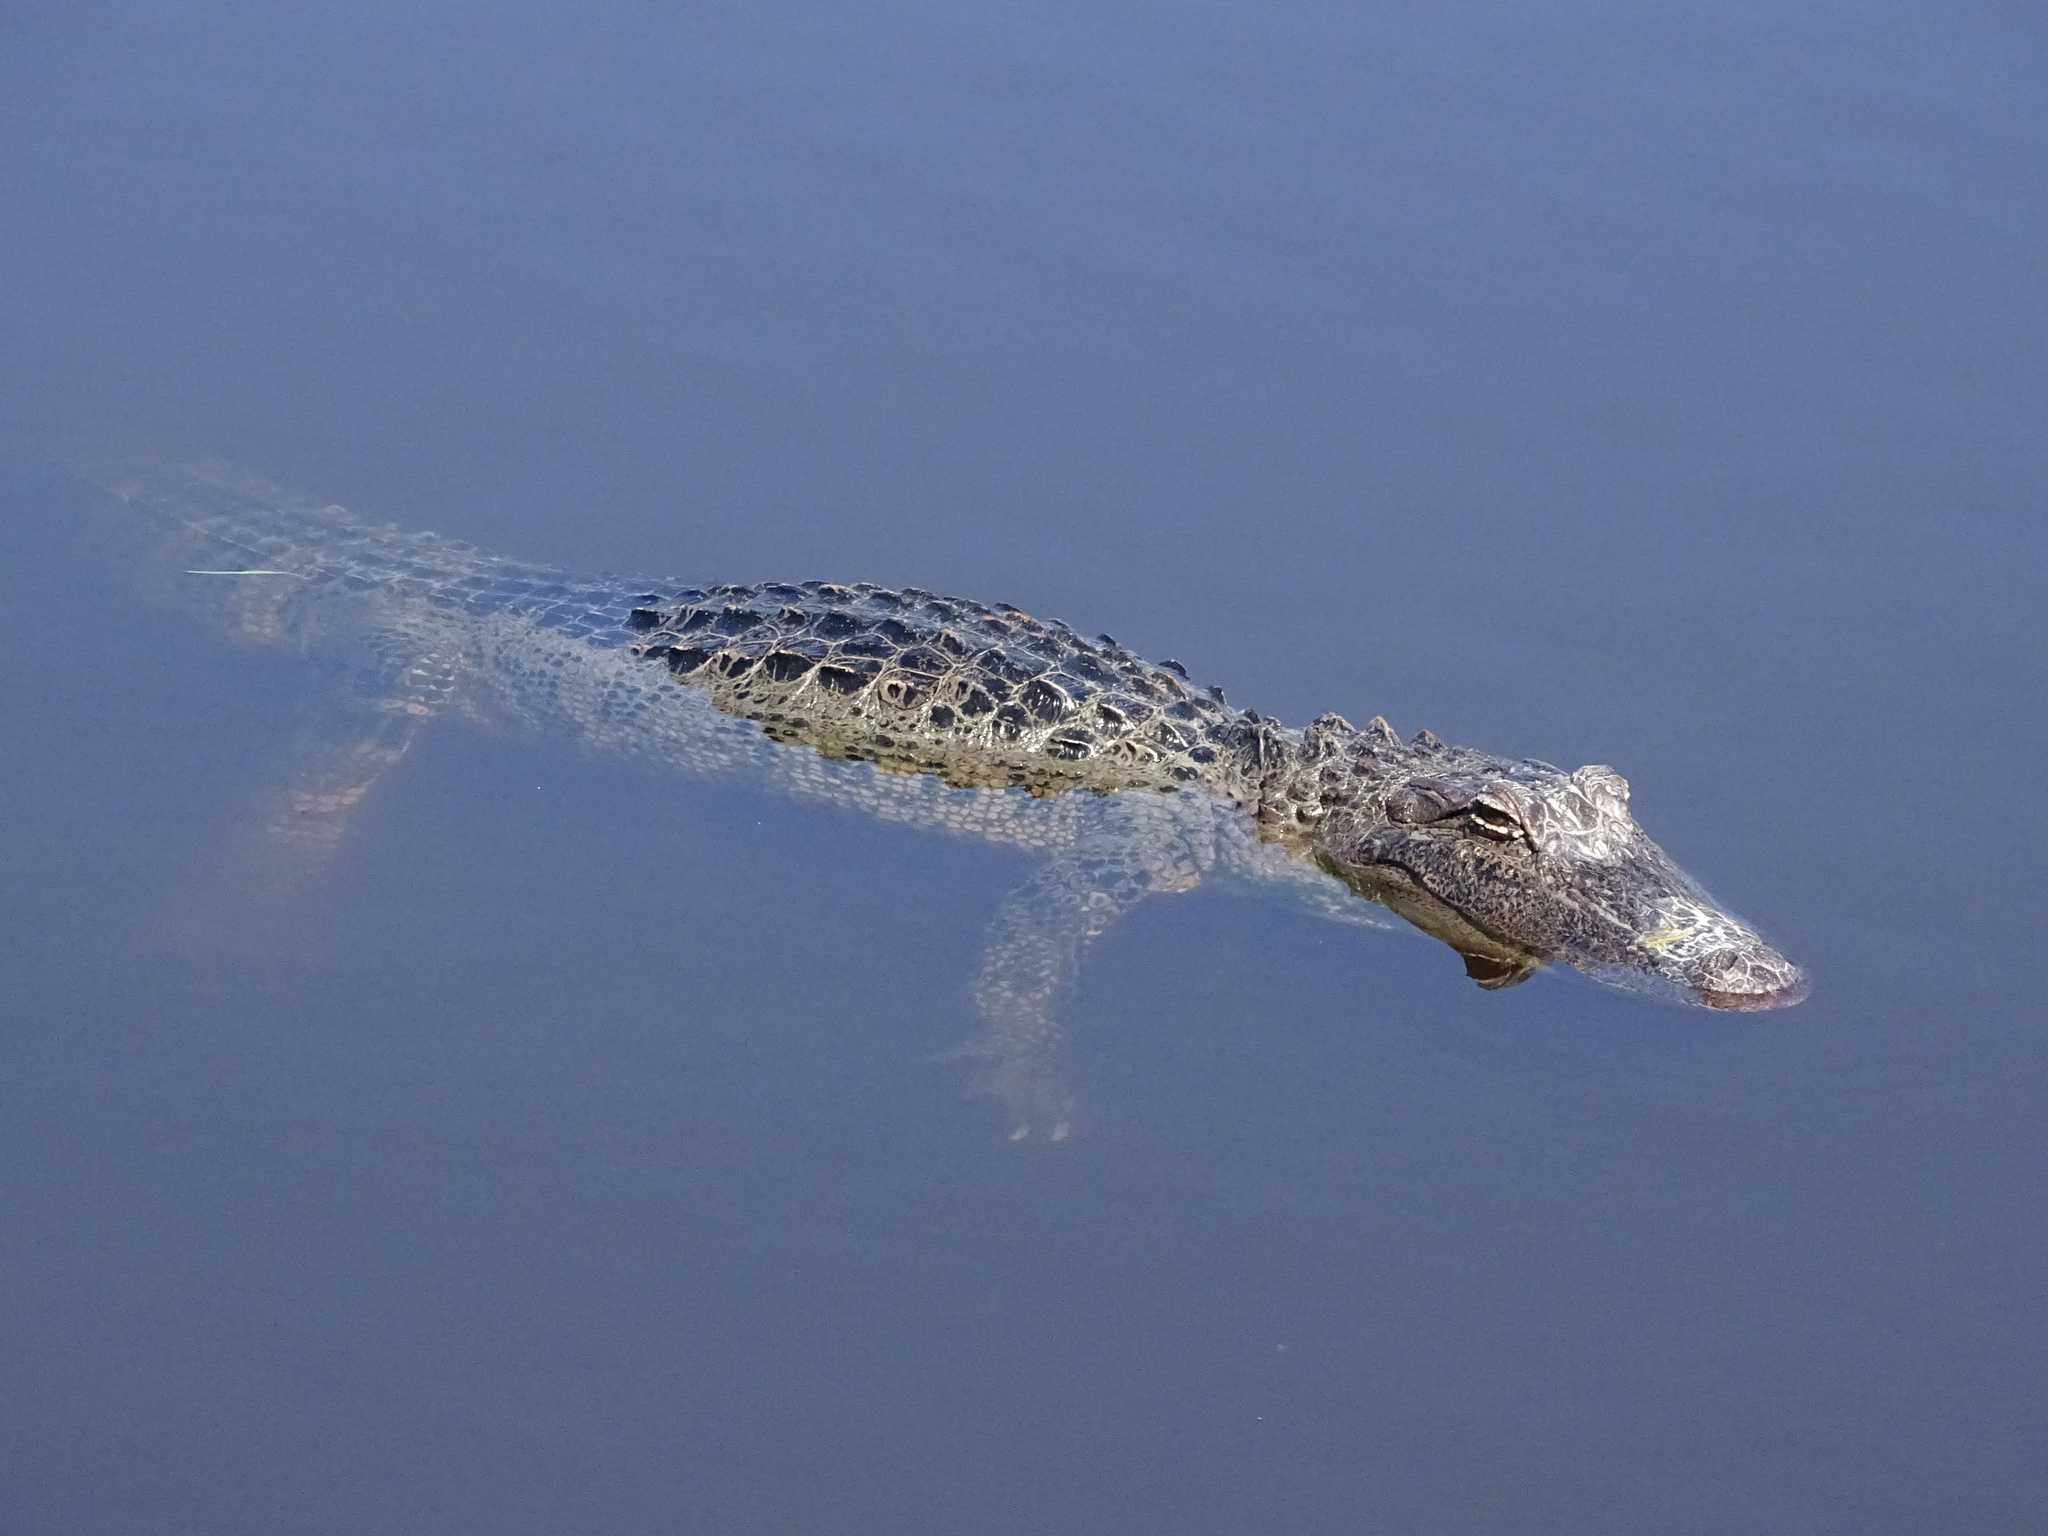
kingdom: Animalia
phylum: Chordata
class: Crocodylia
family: Alligatoridae
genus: Alligator
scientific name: Alligator mississippiensis
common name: American alligator
